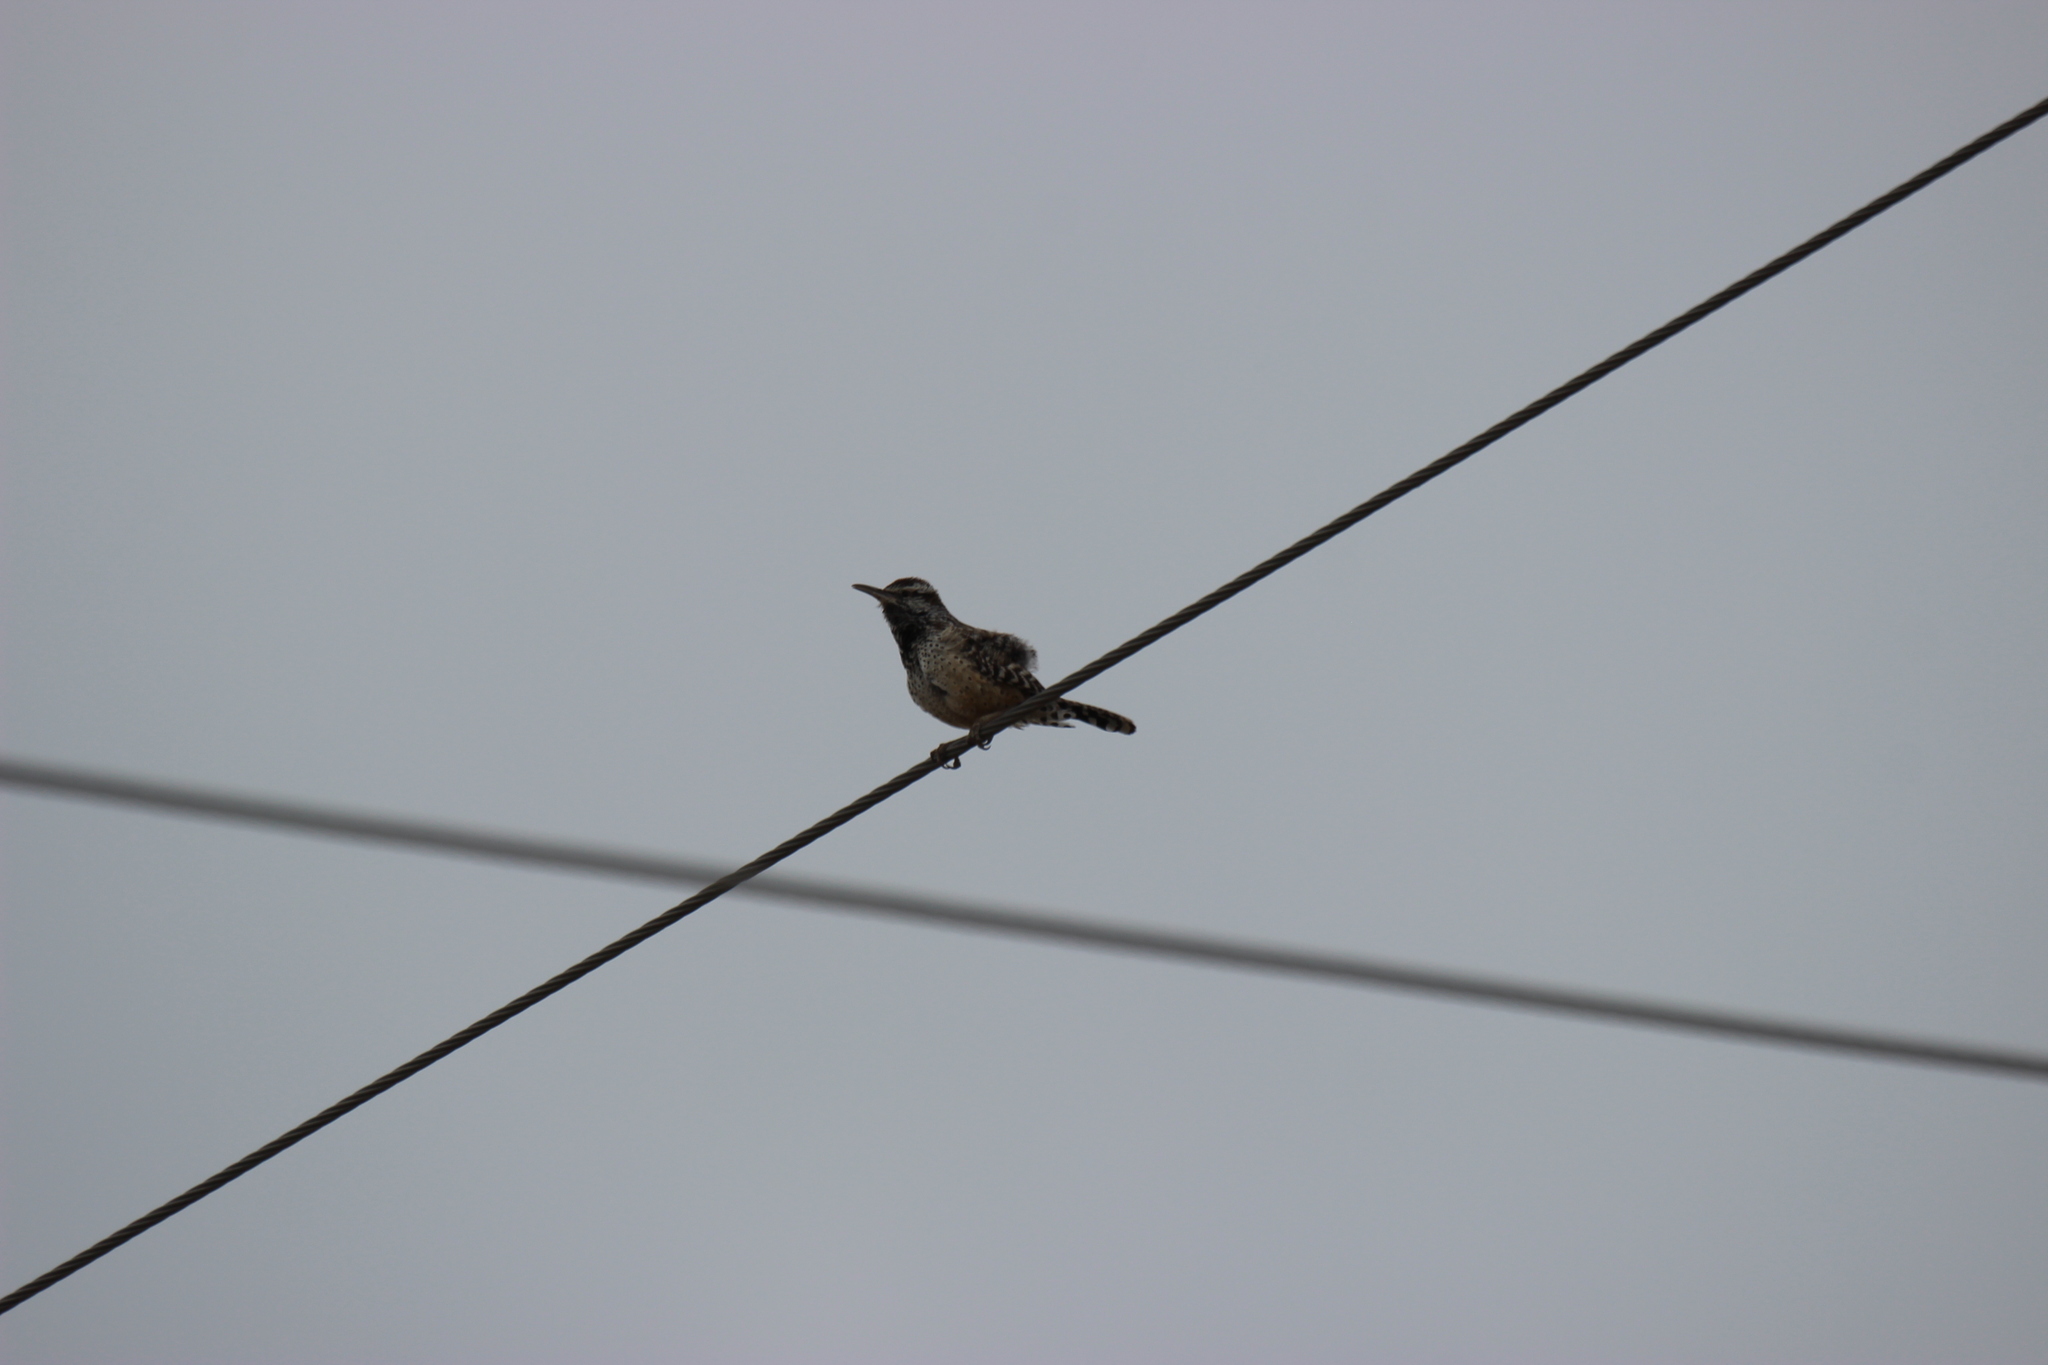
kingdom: Animalia
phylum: Chordata
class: Aves
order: Passeriformes
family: Troglodytidae
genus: Campylorhynchus
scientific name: Campylorhynchus brunneicapillus
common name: Cactus wren
